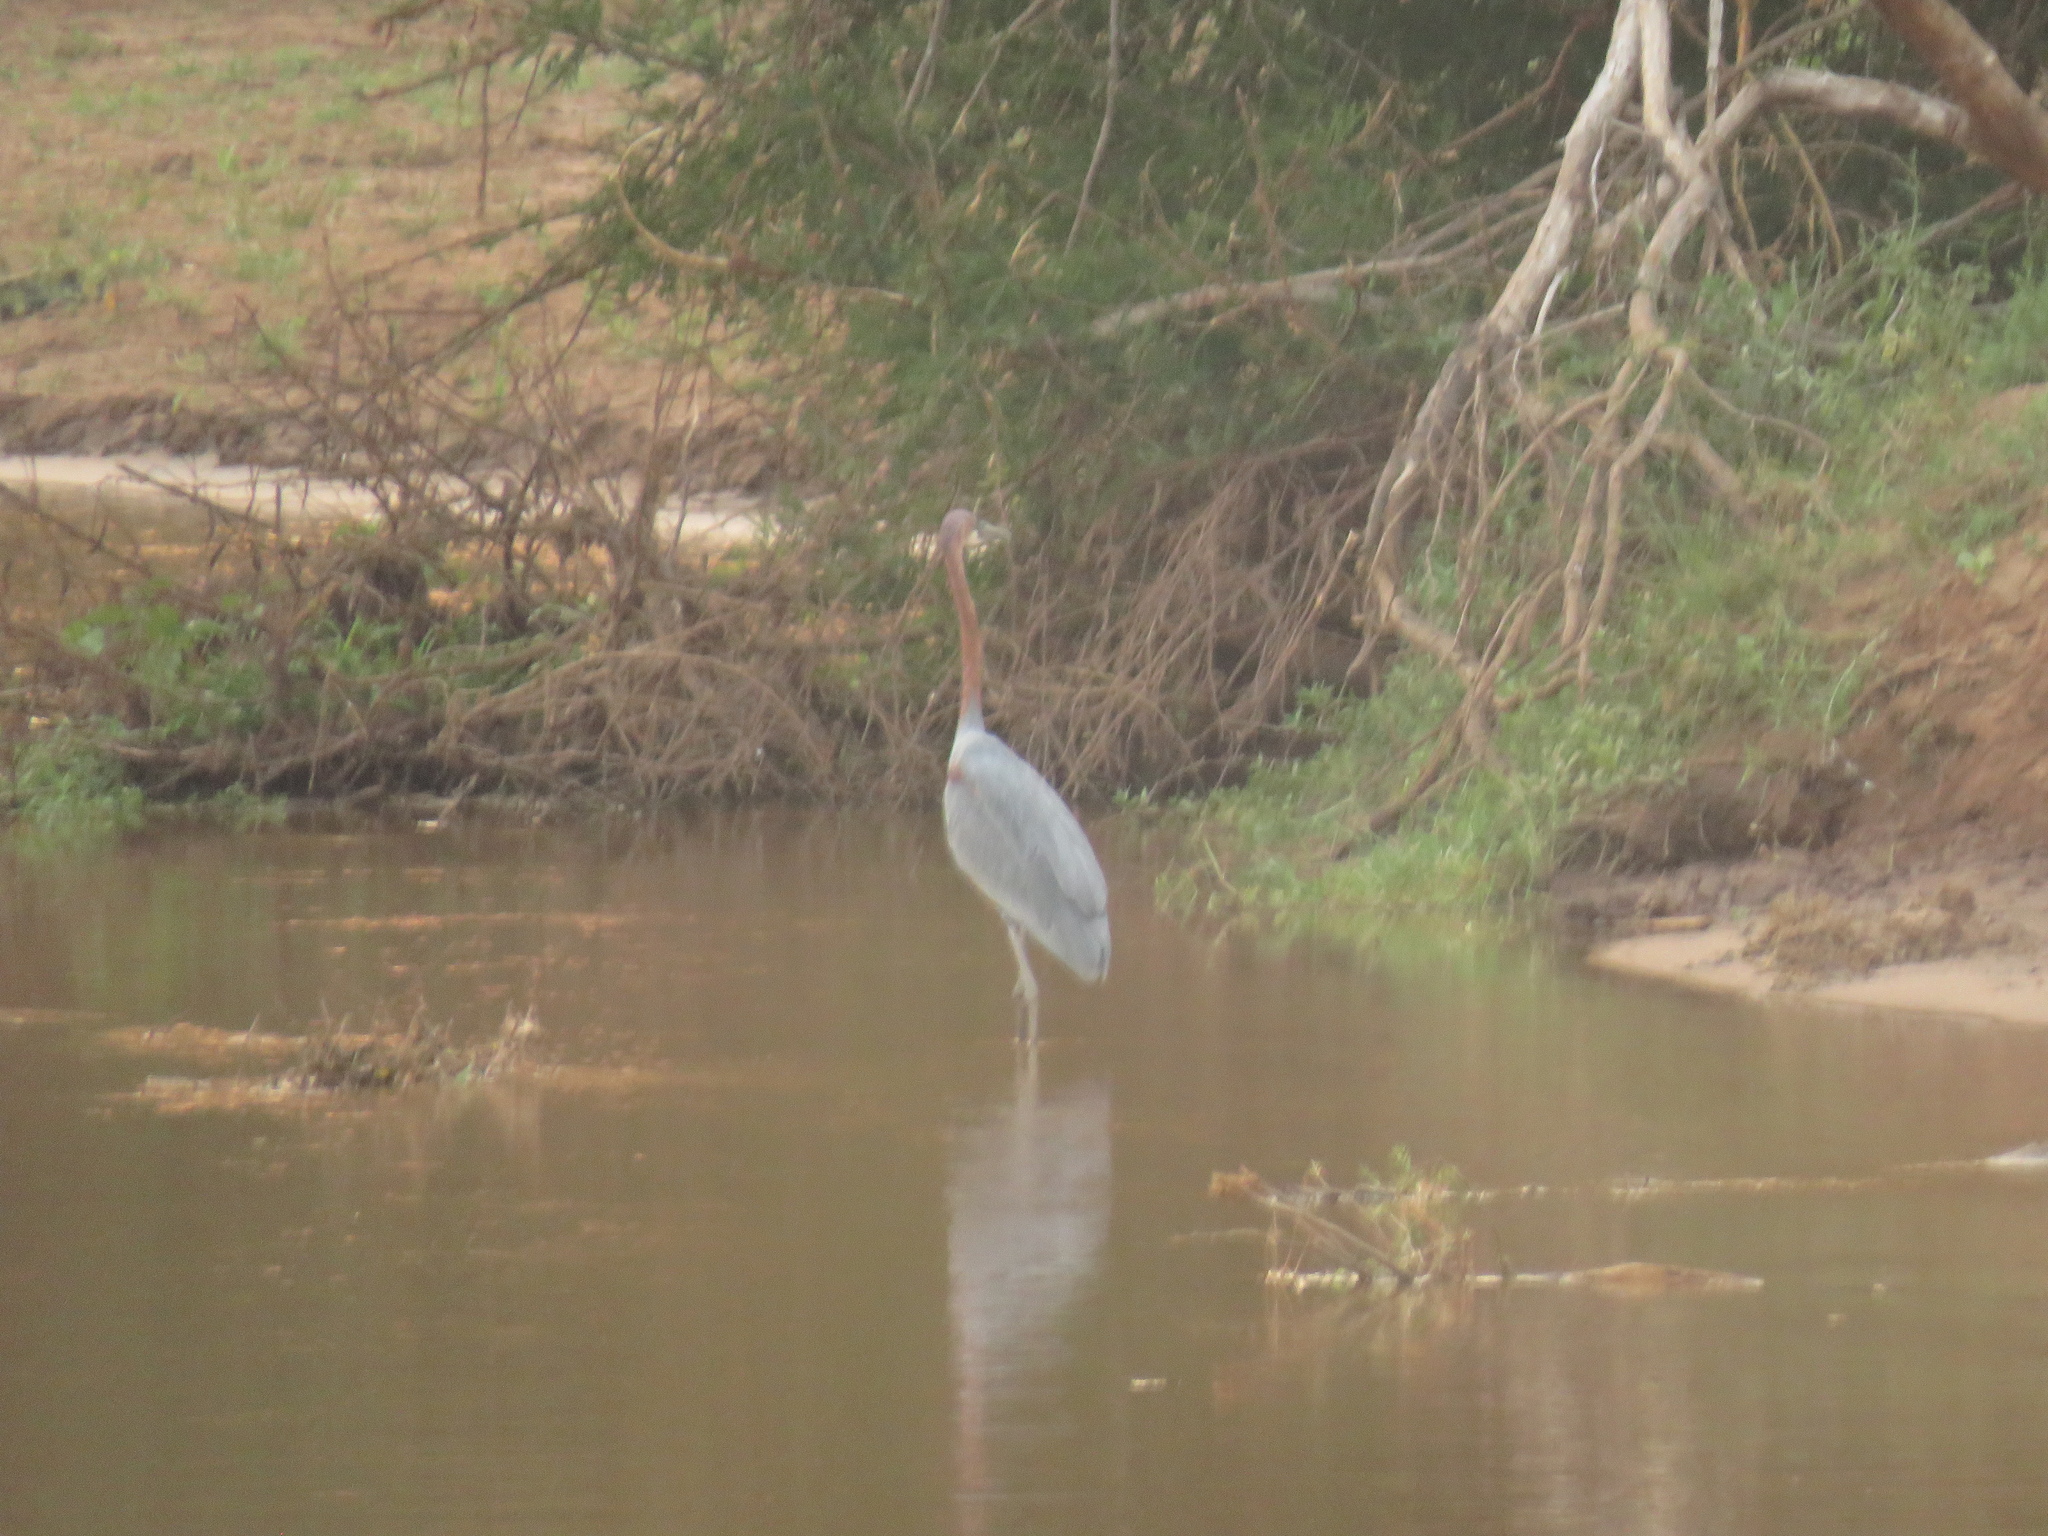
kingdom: Animalia
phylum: Chordata
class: Aves
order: Pelecaniformes
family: Ardeidae
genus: Ardea
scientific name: Ardea goliath
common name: Goliath heron
